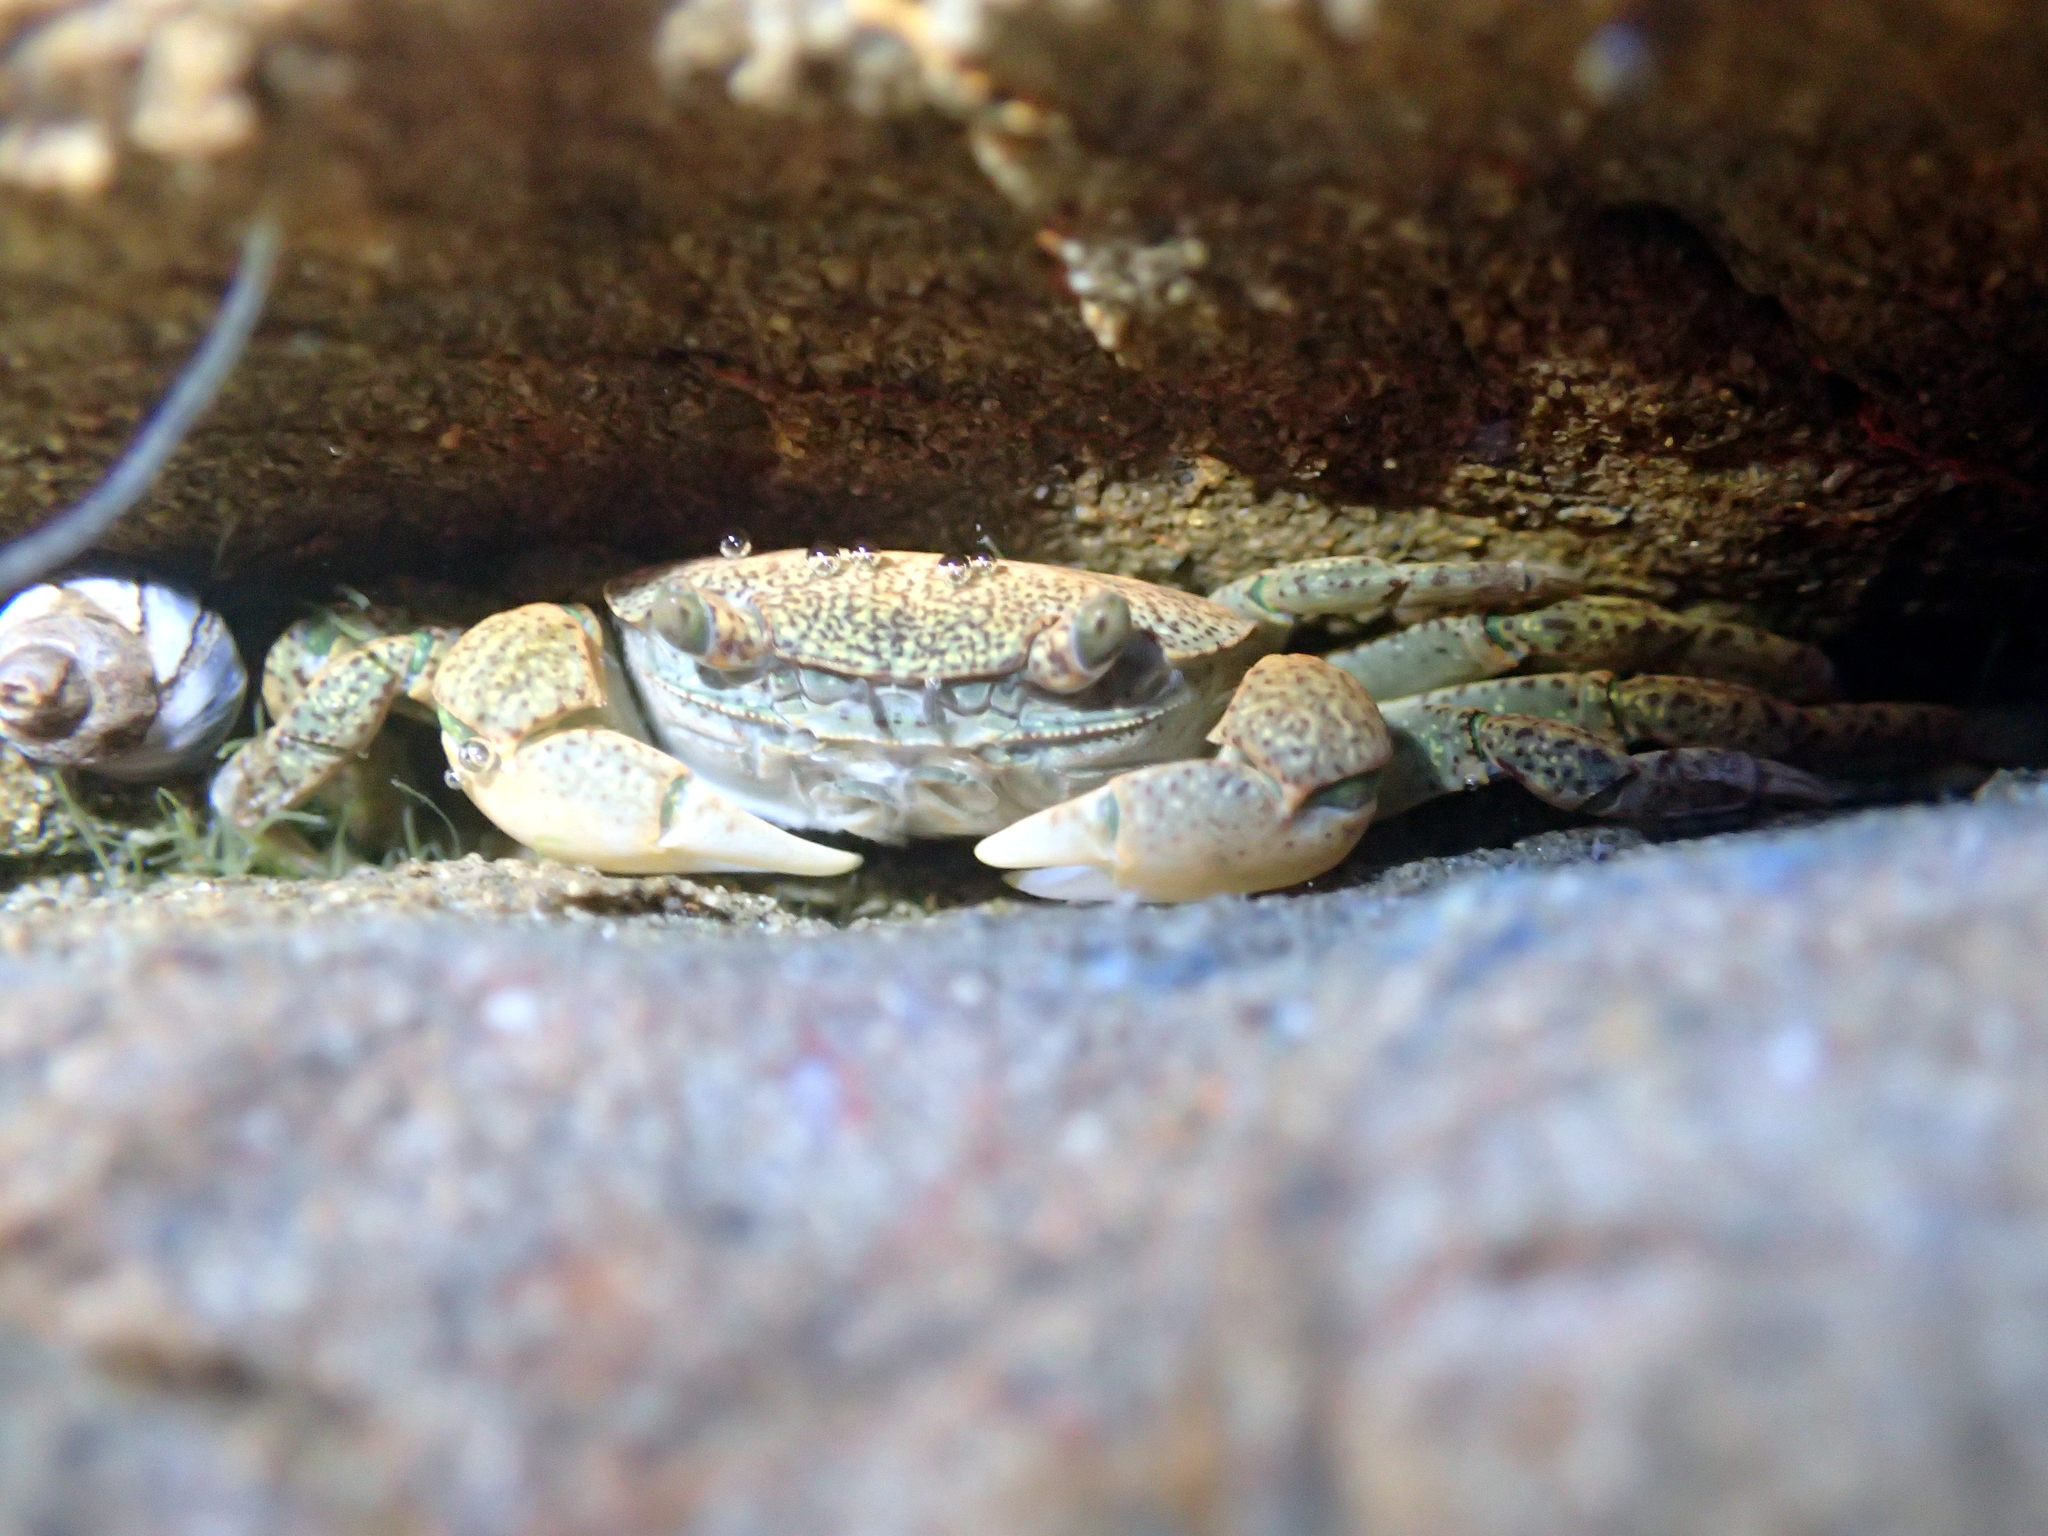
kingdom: Animalia
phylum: Arthropoda
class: Malacostraca
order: Decapoda
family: Varunidae
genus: Cyclograpsus
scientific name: Cyclograpsus lavauxi
